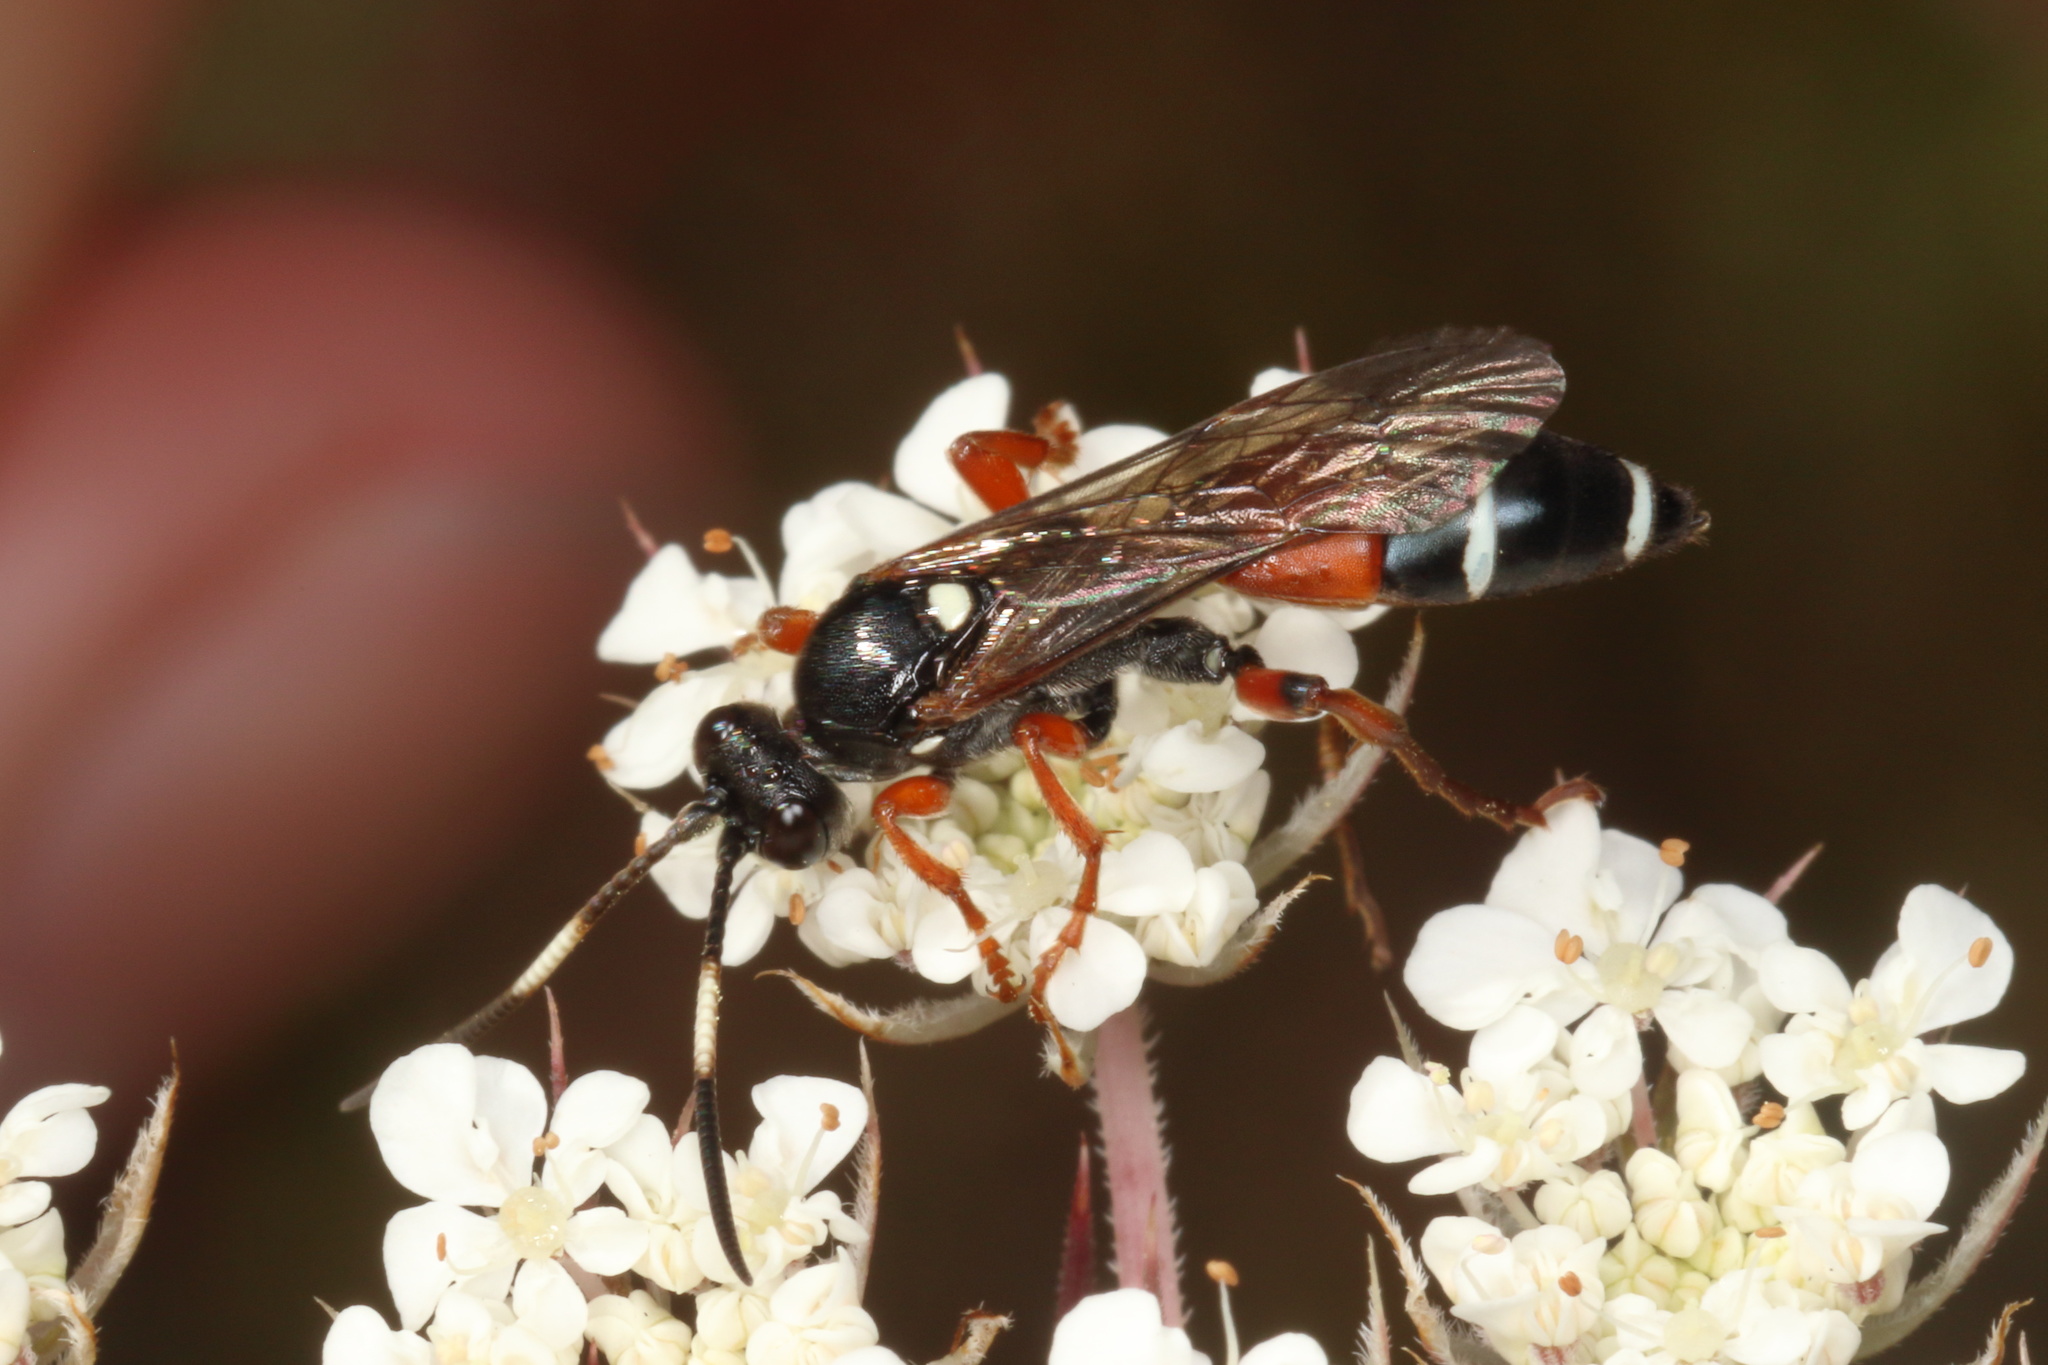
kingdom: Animalia
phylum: Arthropoda
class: Insecta
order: Hymenoptera
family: Ichneumonidae
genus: Ichneumon
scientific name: Ichneumon promissorius
